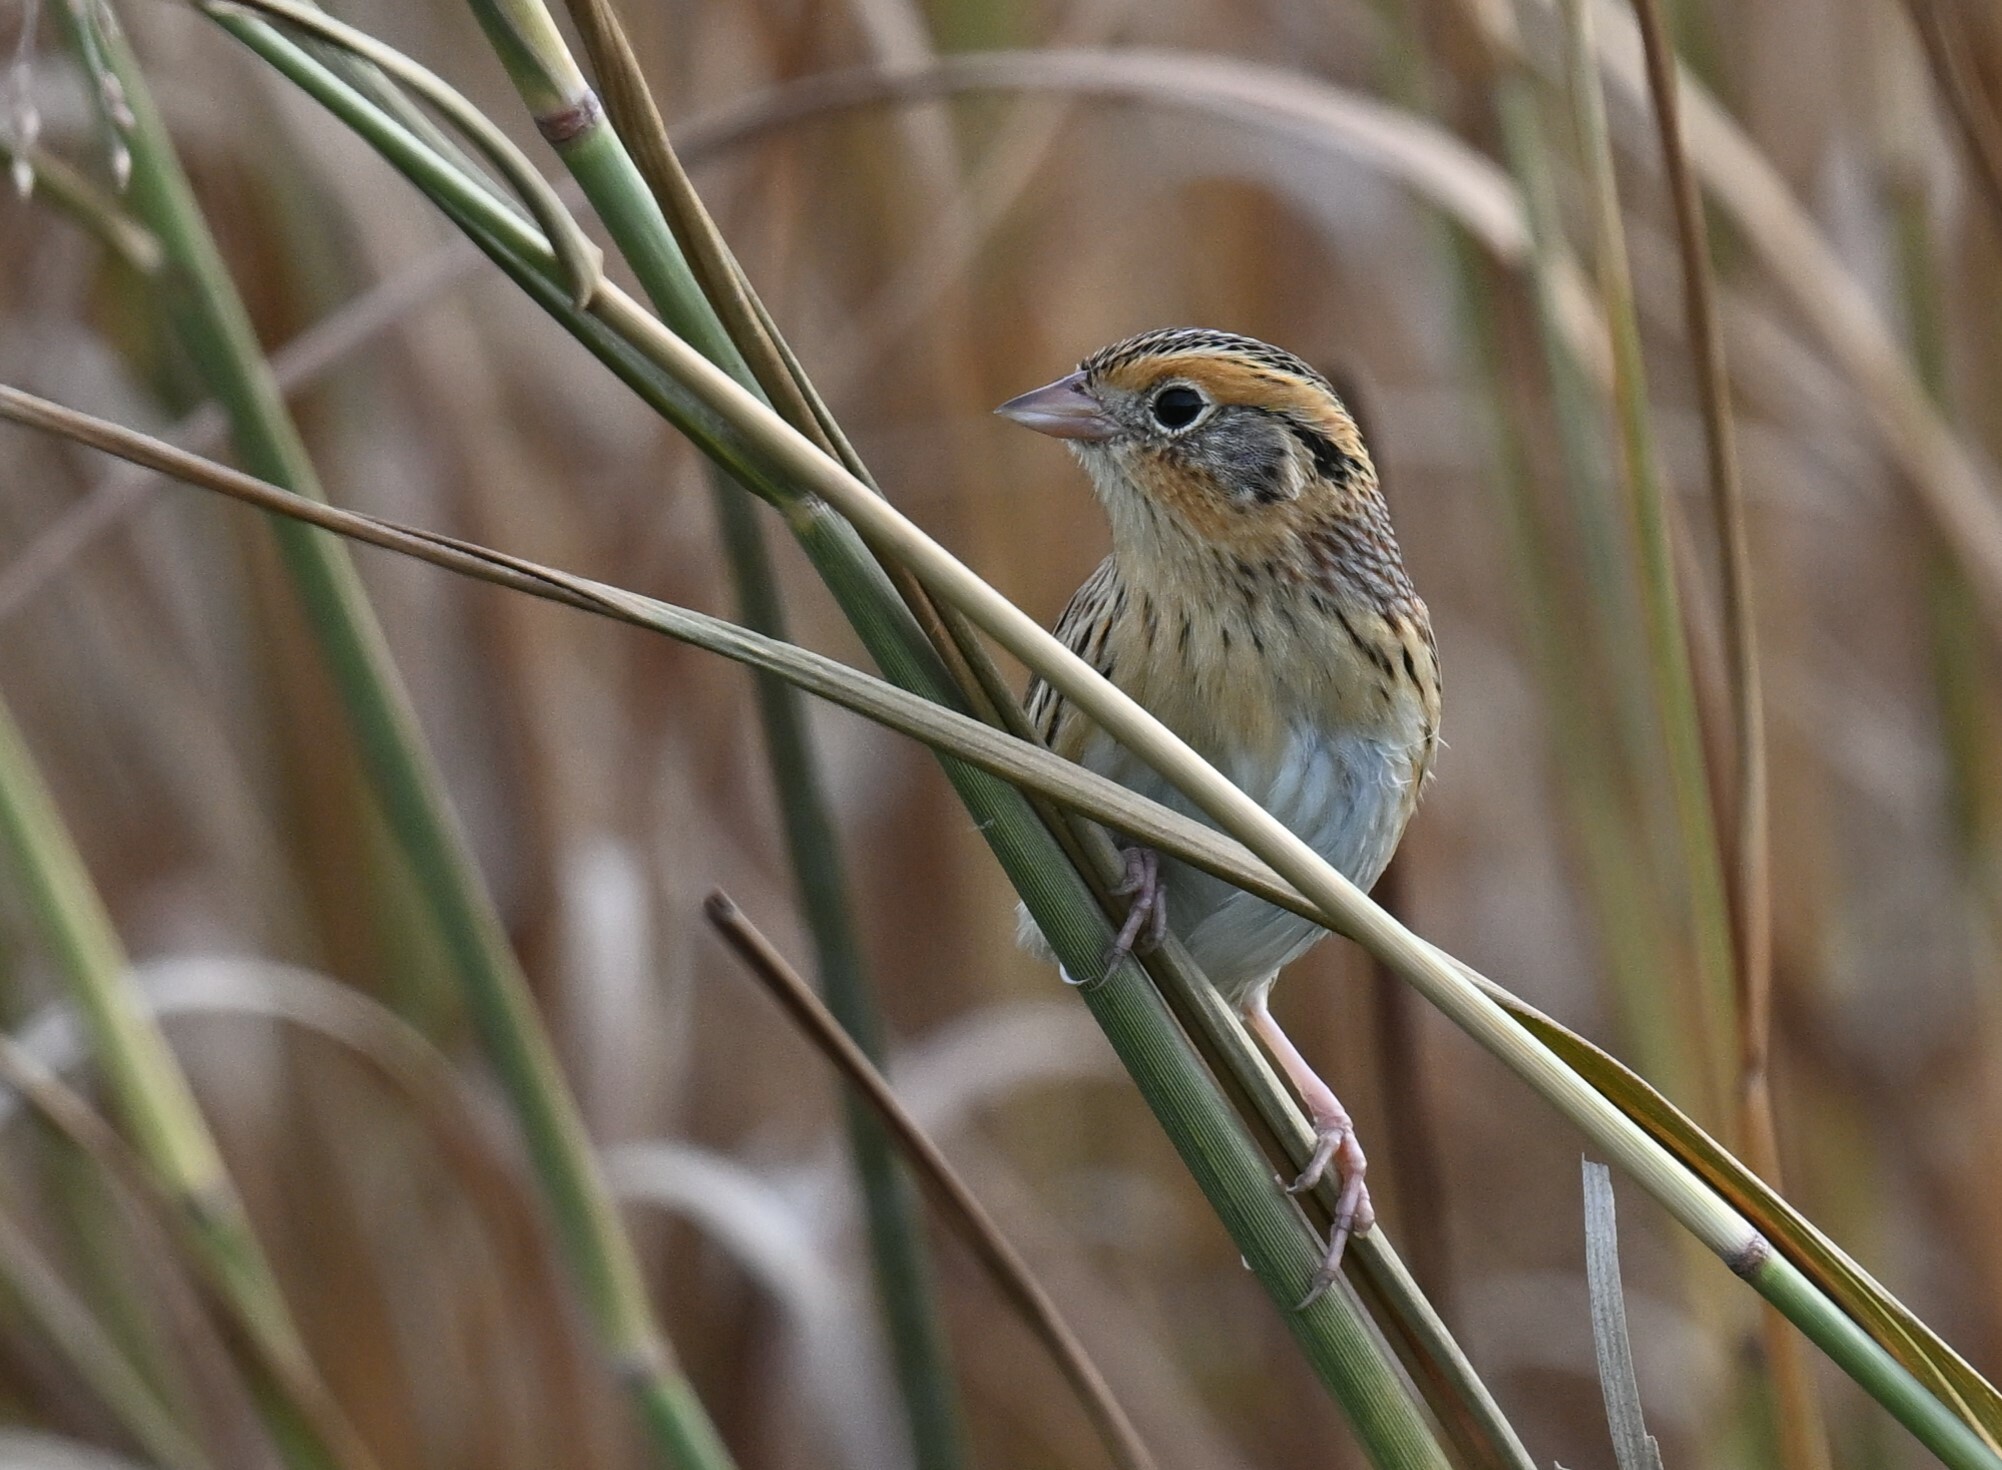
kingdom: Animalia
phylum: Chordata
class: Aves
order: Passeriformes
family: Passerellidae
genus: Ammospiza
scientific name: Ammospiza leconteii
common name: Le conte's sparrow
